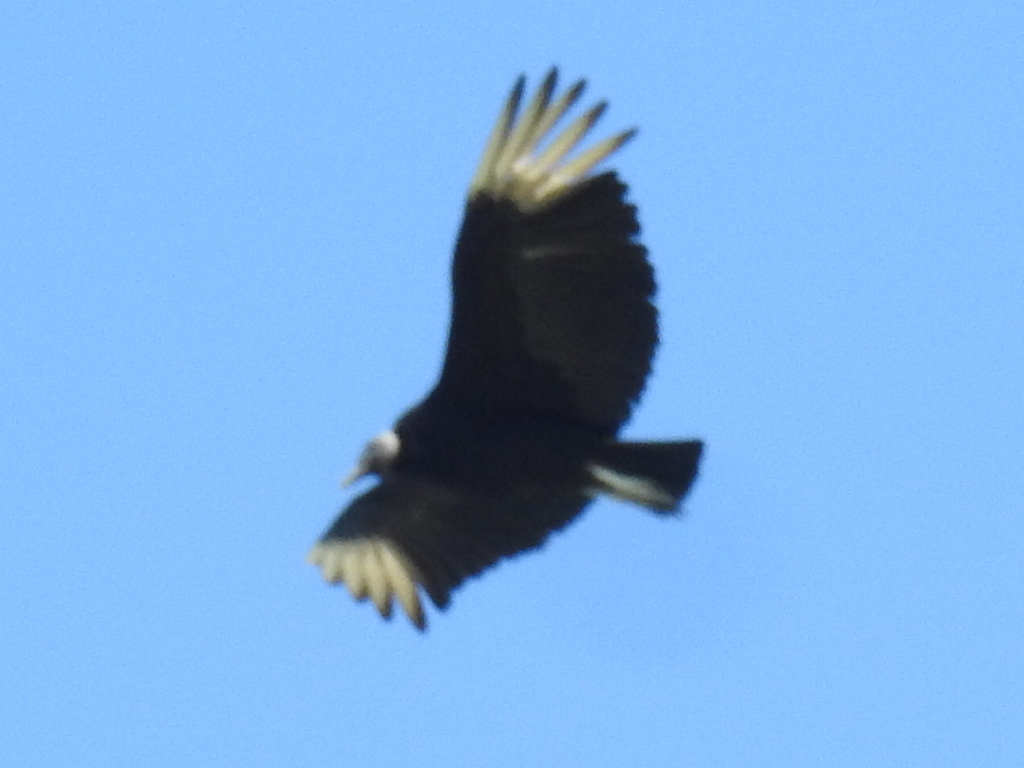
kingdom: Animalia
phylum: Chordata
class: Aves
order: Accipitriformes
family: Cathartidae
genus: Coragyps
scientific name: Coragyps atratus
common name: Black vulture
